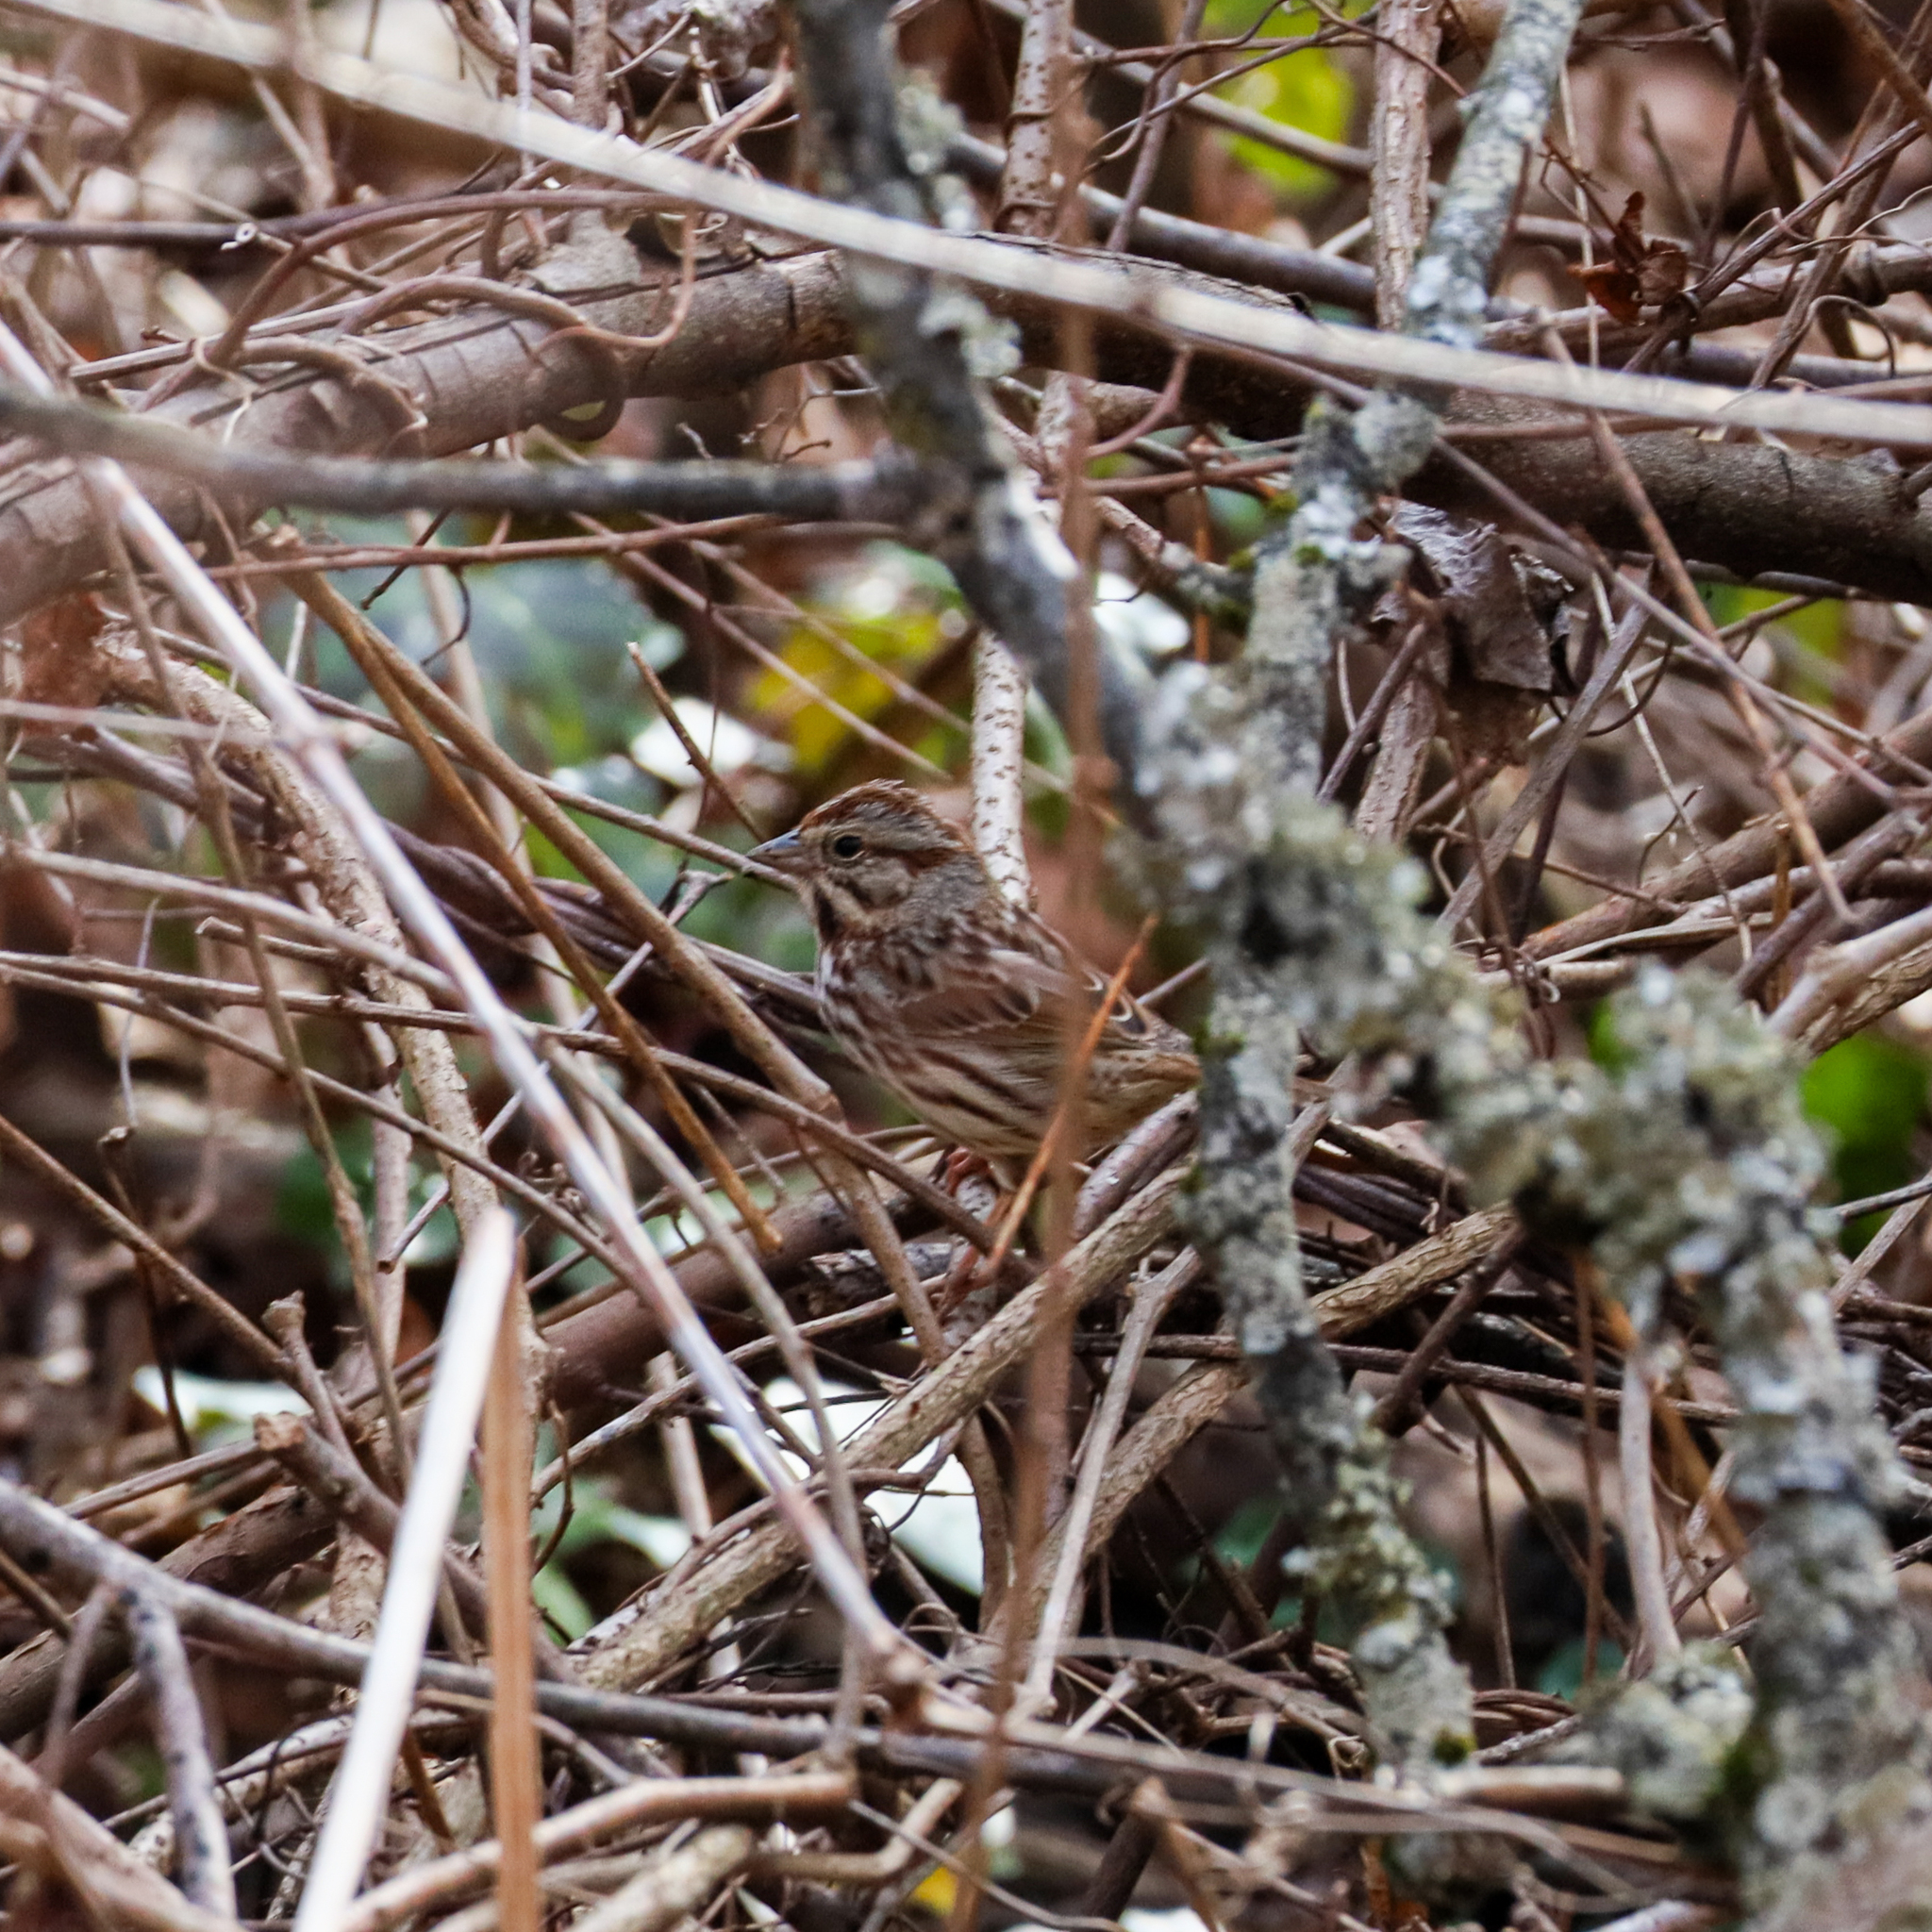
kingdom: Animalia
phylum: Chordata
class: Aves
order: Passeriformes
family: Passerellidae
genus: Melospiza
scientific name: Melospiza melodia
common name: Song sparrow
